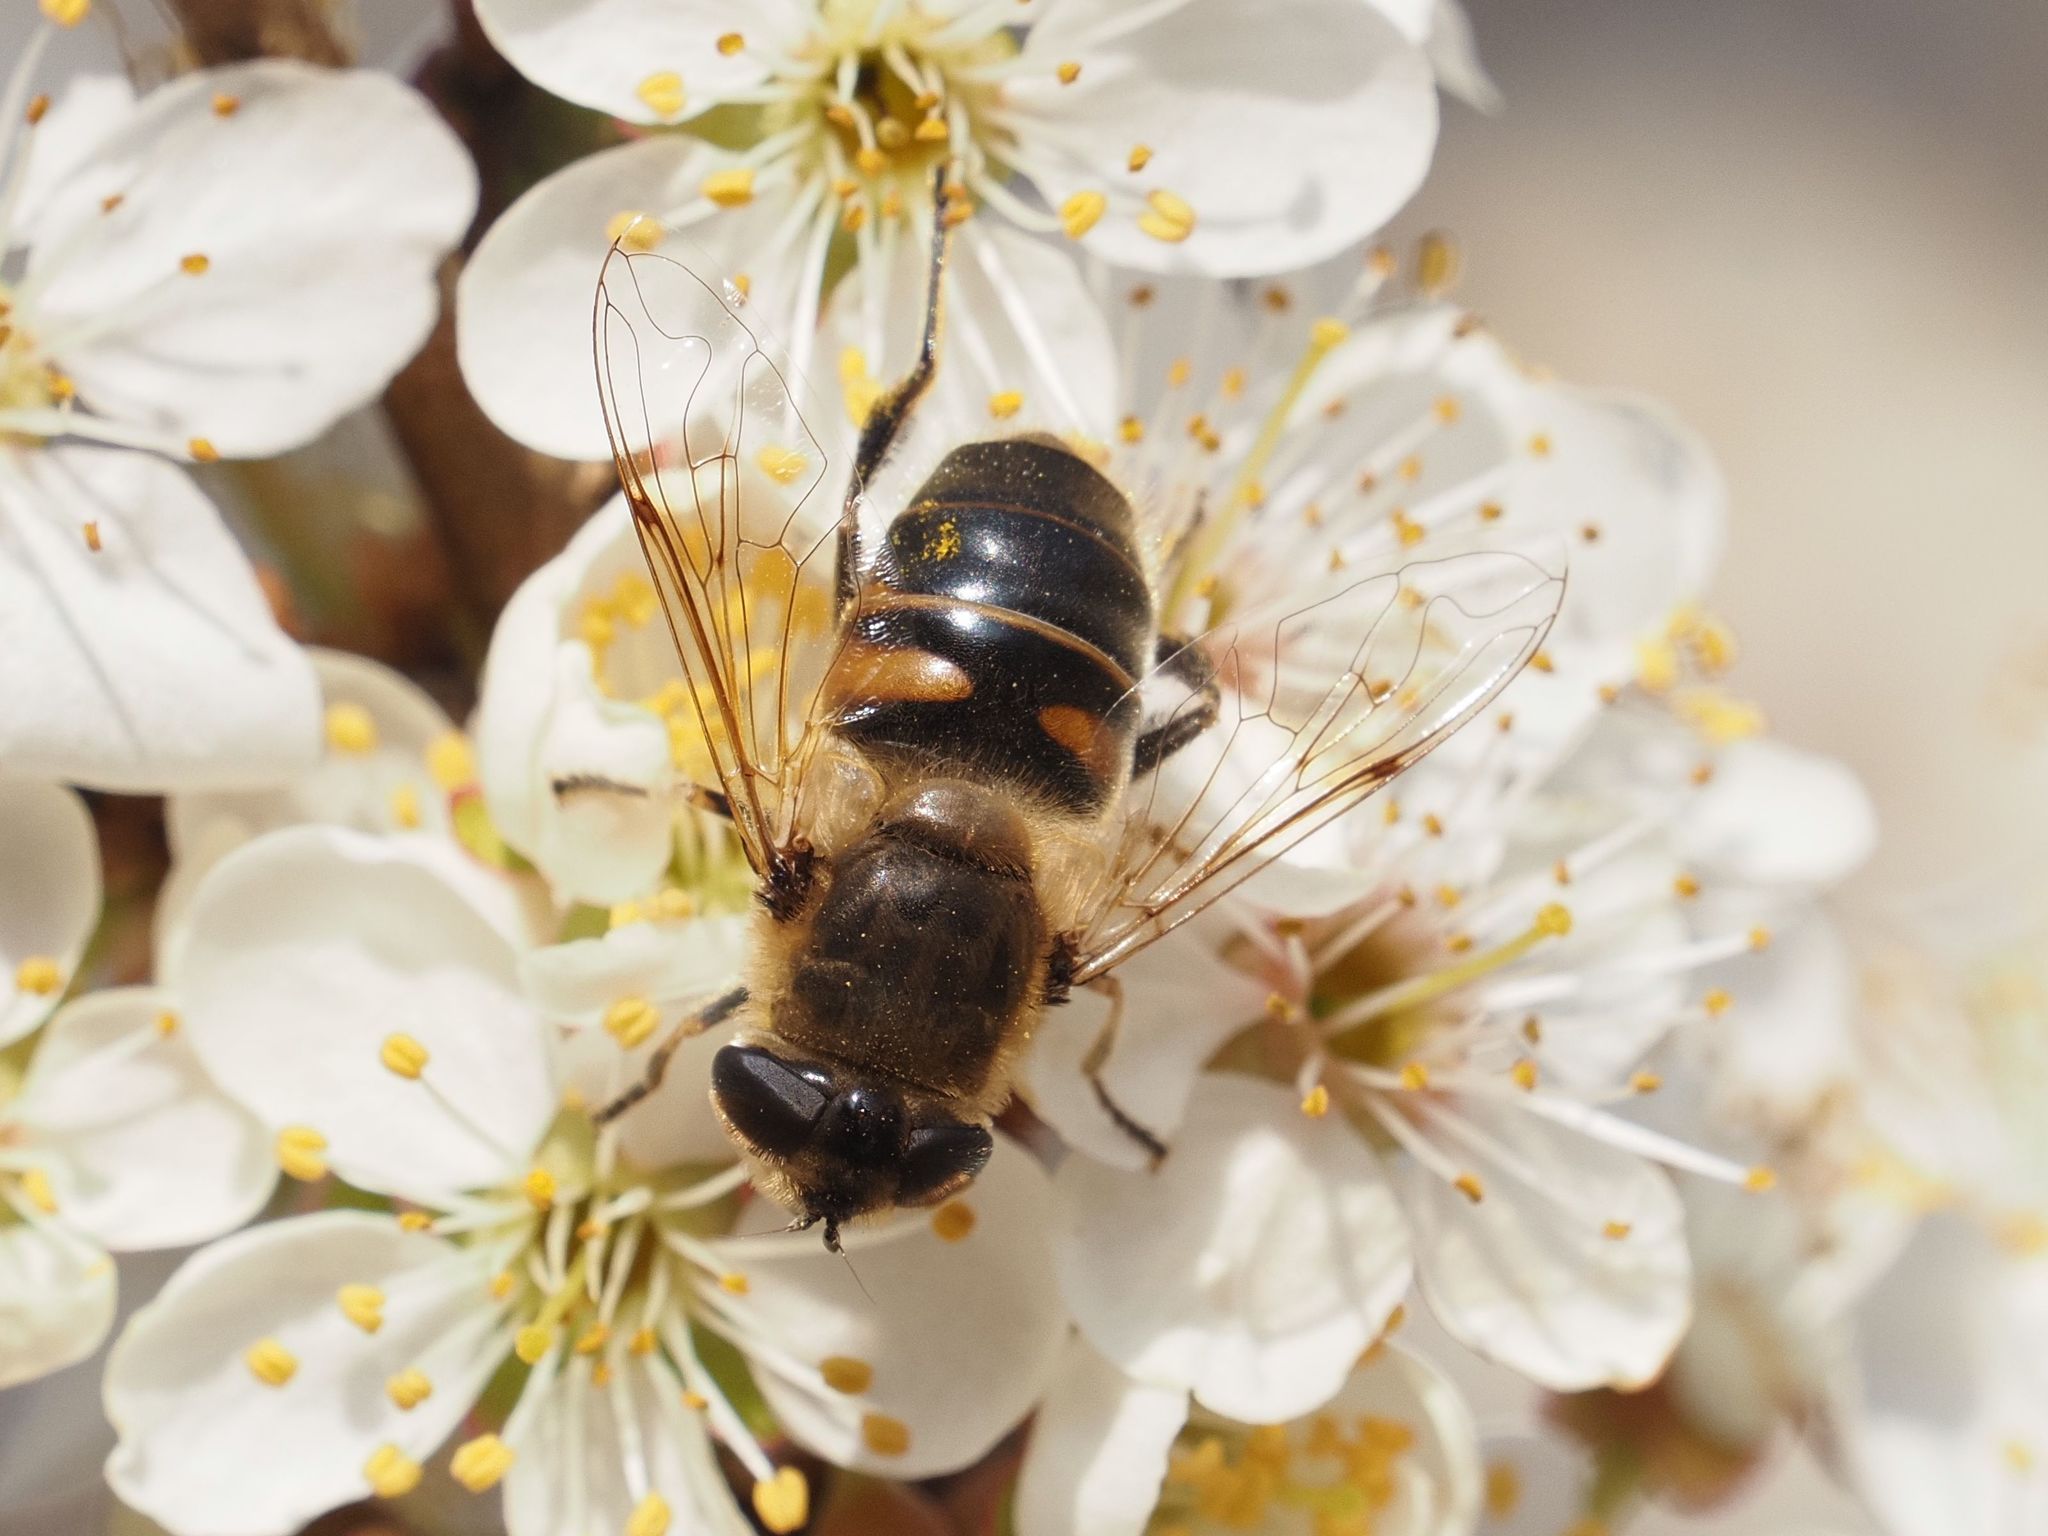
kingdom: Animalia
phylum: Arthropoda
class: Insecta
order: Diptera
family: Syrphidae
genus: Eristalis
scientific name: Eristalis tenax
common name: Drone fly
